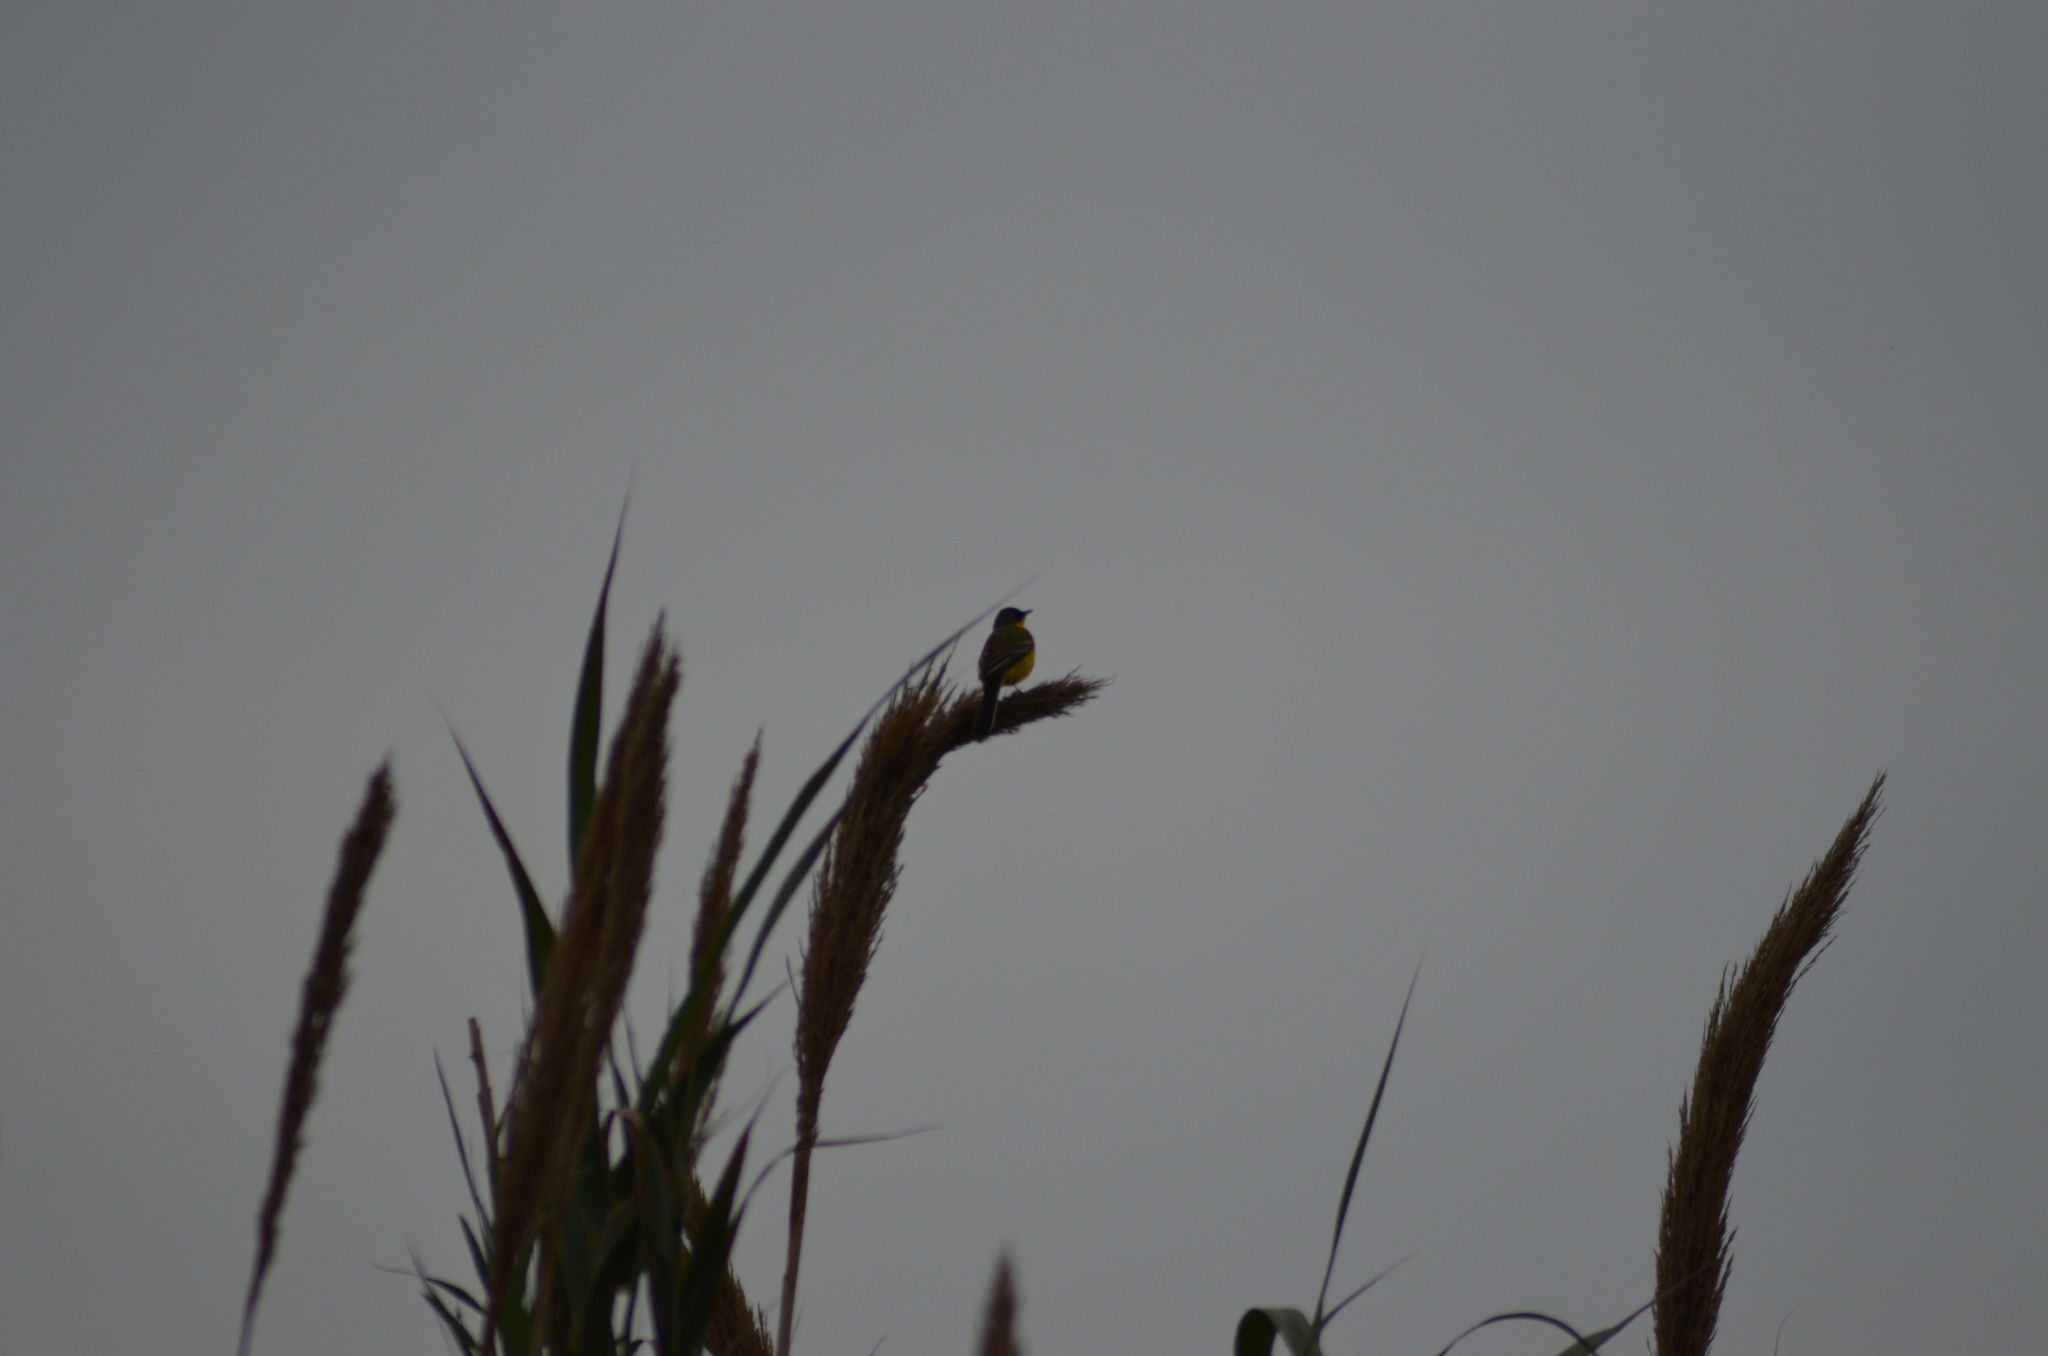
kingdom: Animalia
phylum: Chordata
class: Aves
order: Passeriformes
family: Motacillidae
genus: Motacilla
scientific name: Motacilla flava
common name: Western yellow wagtail
